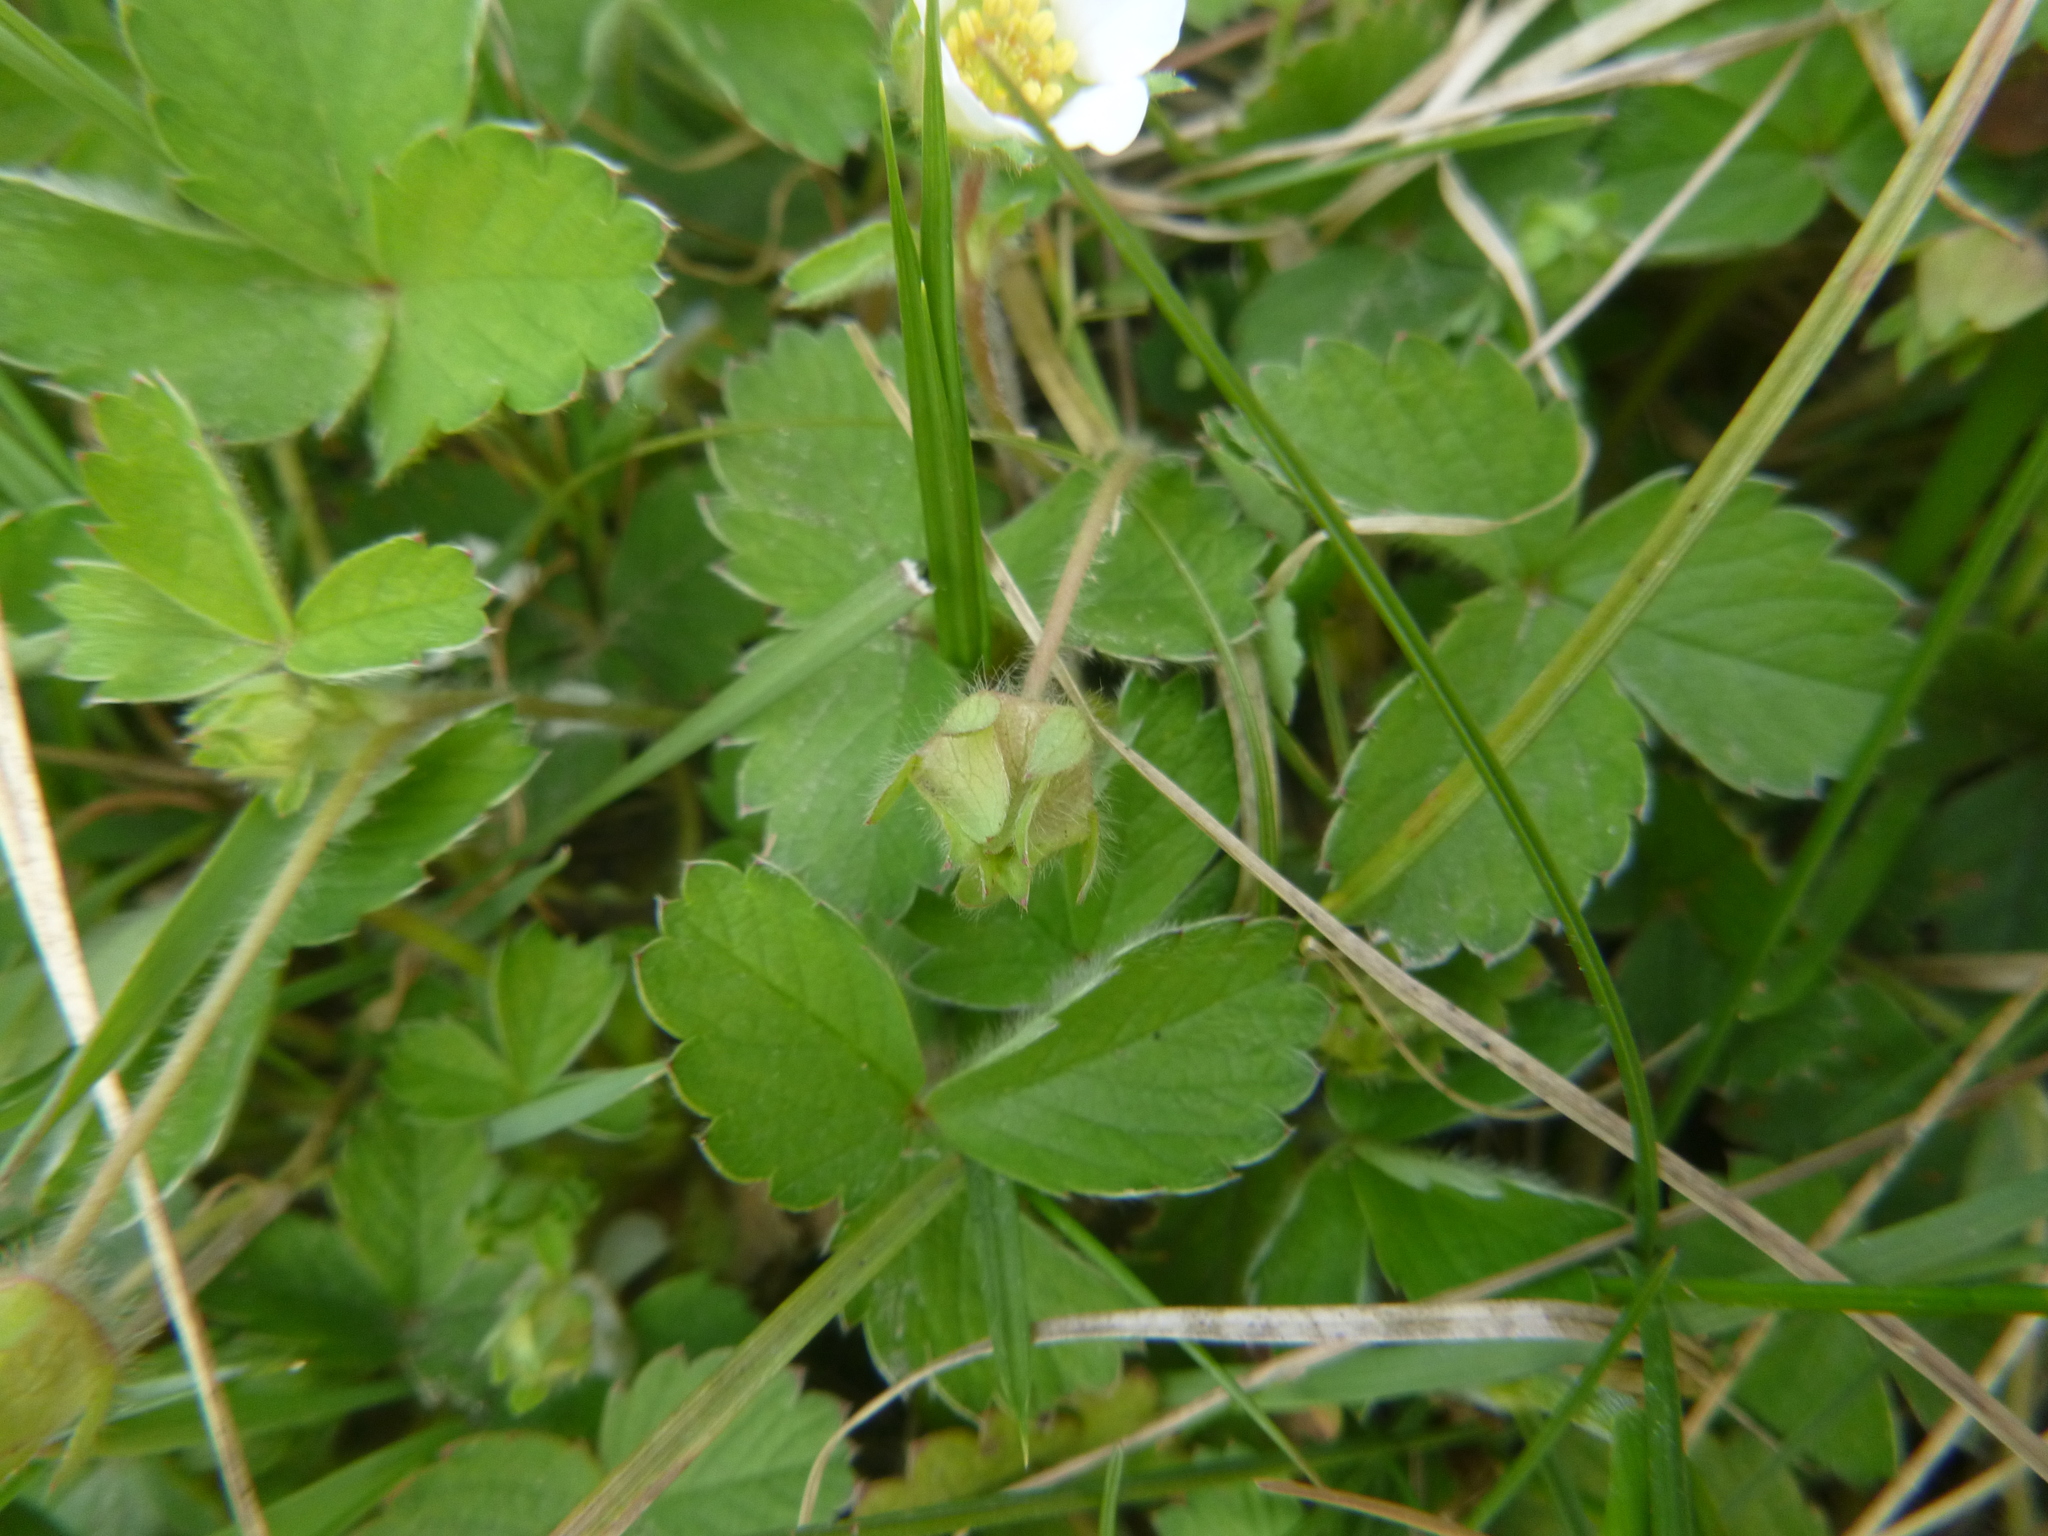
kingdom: Plantae
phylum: Tracheophyta
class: Magnoliopsida
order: Rosales
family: Rosaceae
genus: Potentilla
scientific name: Potentilla sterilis
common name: Barren strawberry
